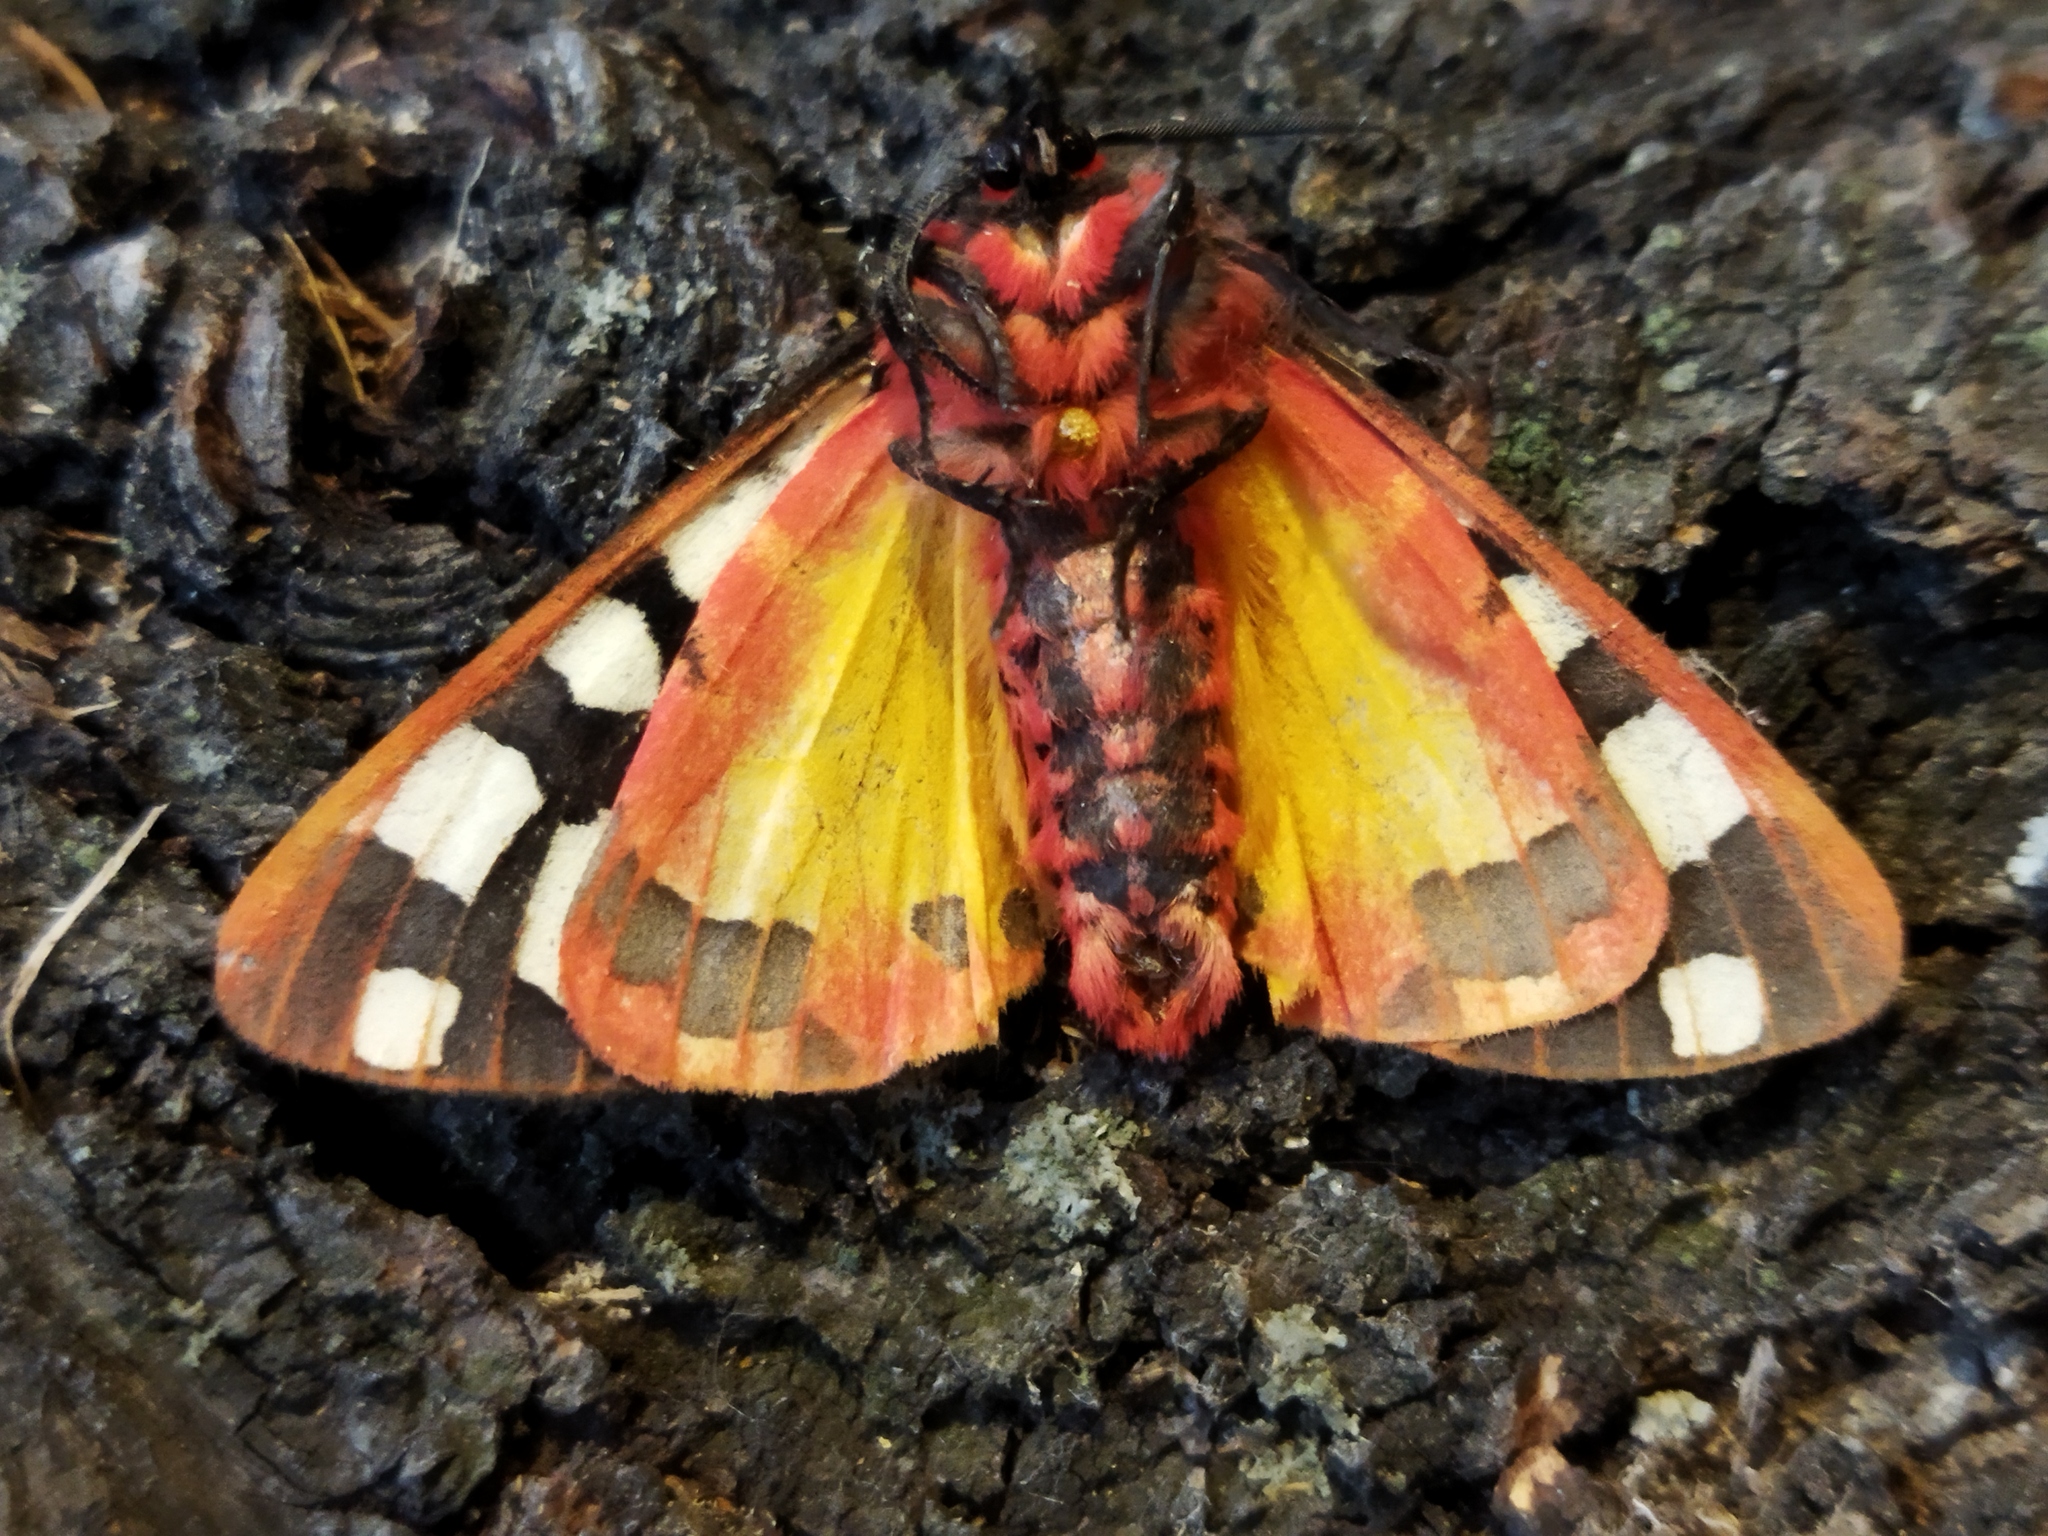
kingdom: Animalia
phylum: Arthropoda
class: Insecta
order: Lepidoptera
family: Erebidae
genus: Epicallia
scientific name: Epicallia villica
